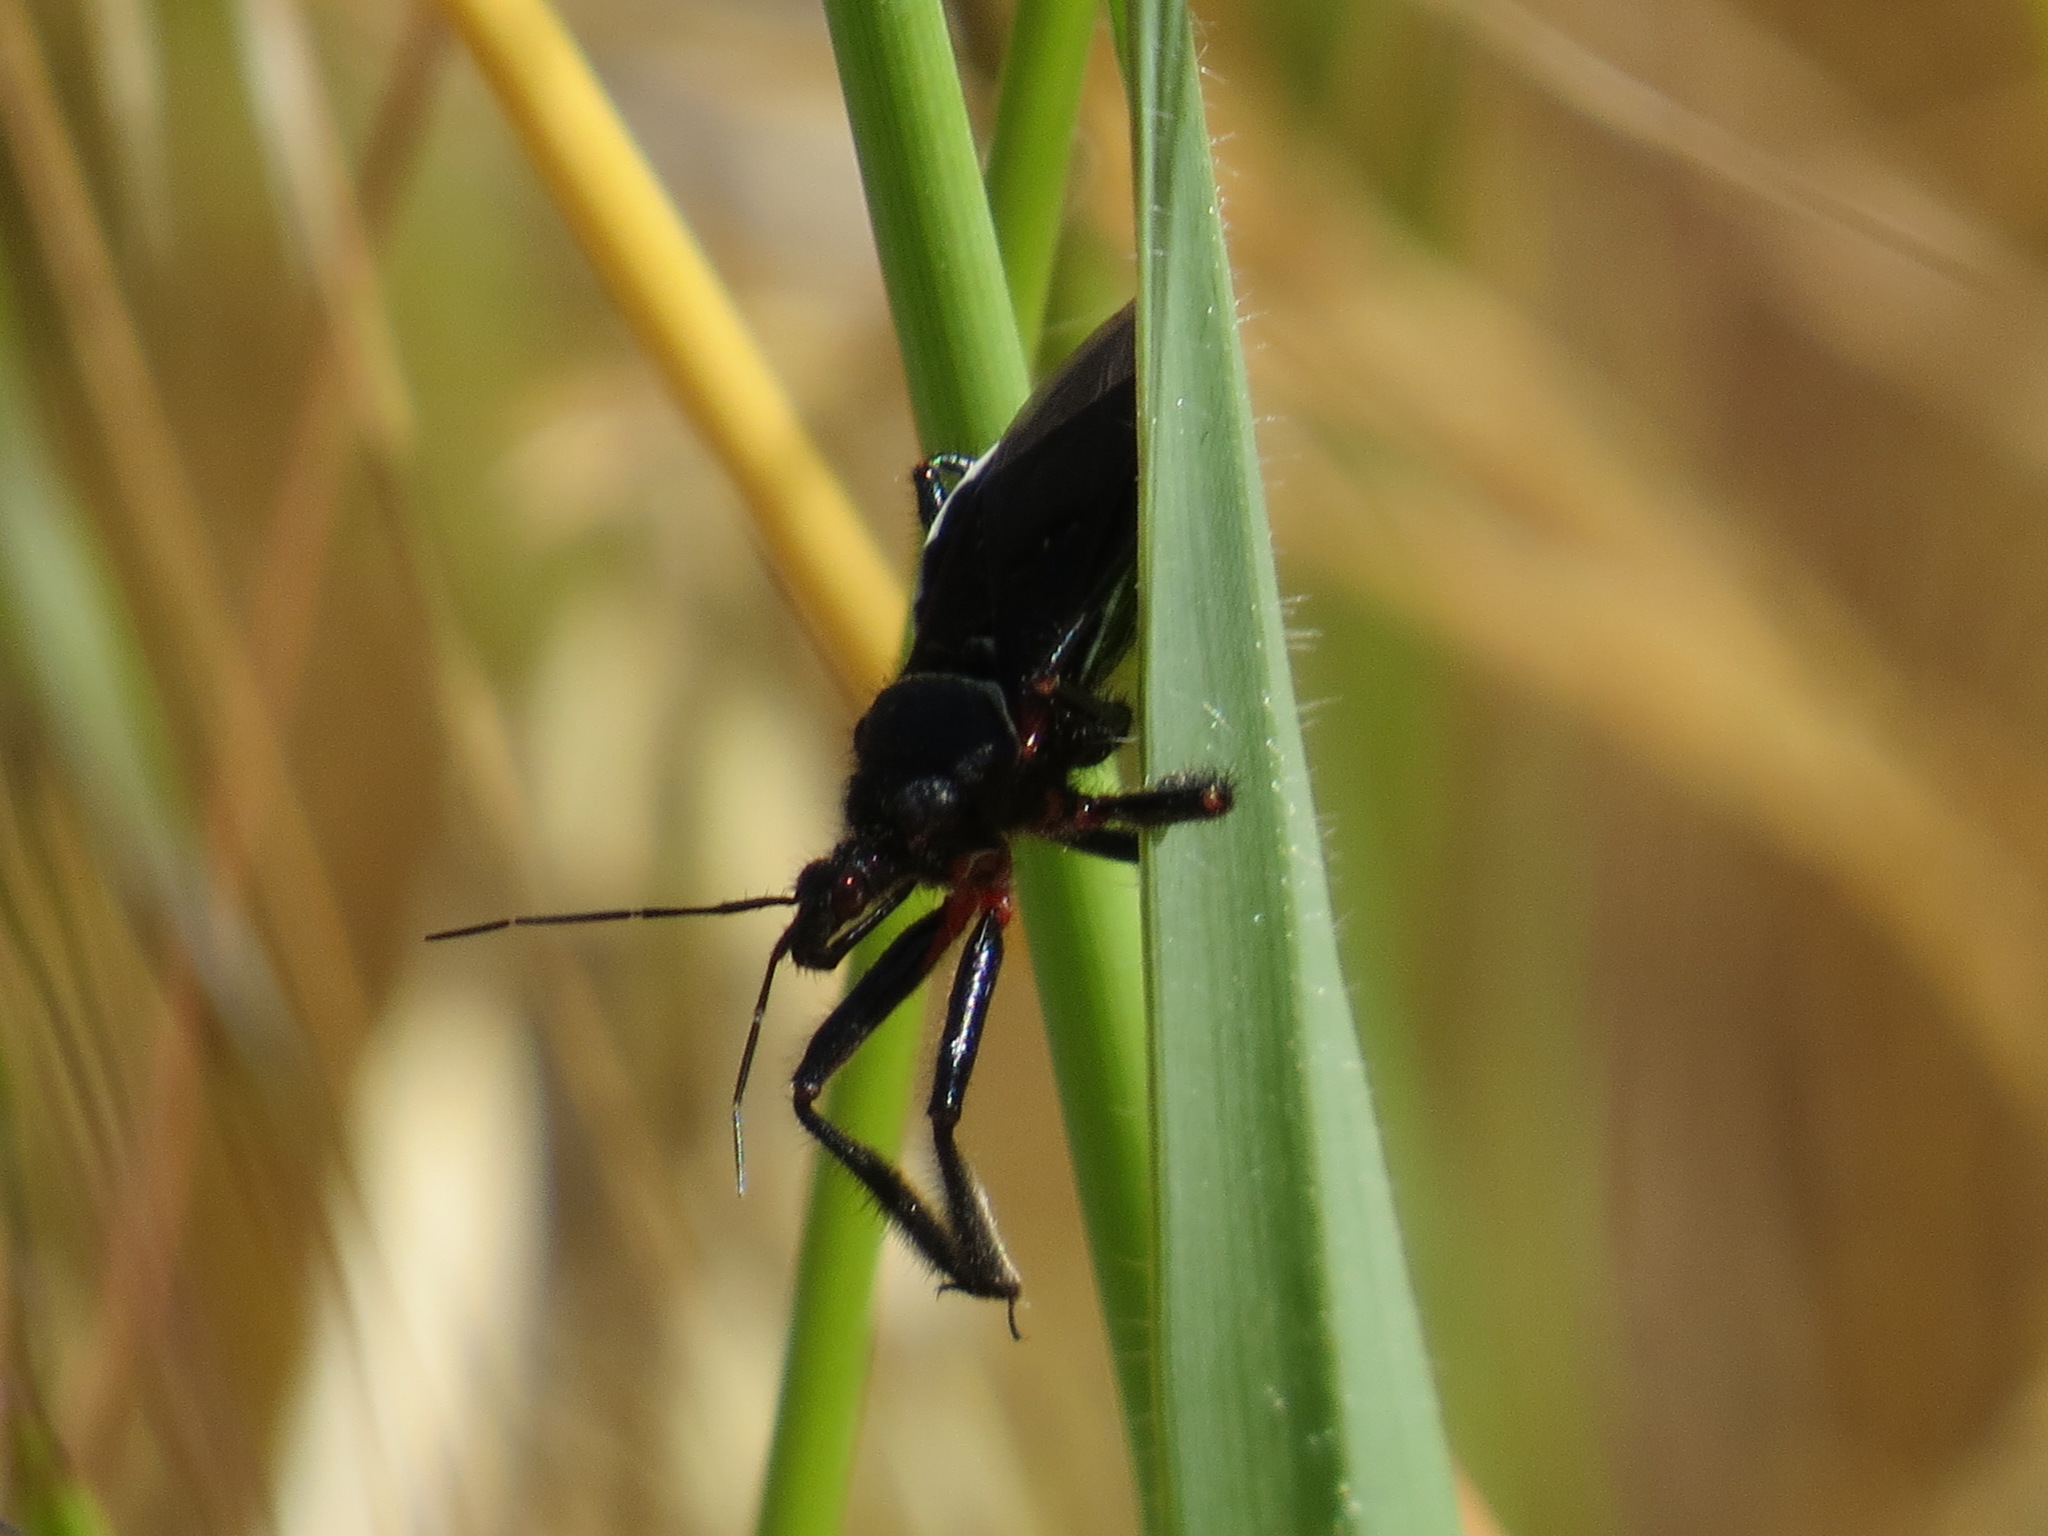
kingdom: Animalia
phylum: Arthropoda
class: Insecta
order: Hemiptera
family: Reduviidae
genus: Apiomerus
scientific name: Apiomerus californicus
